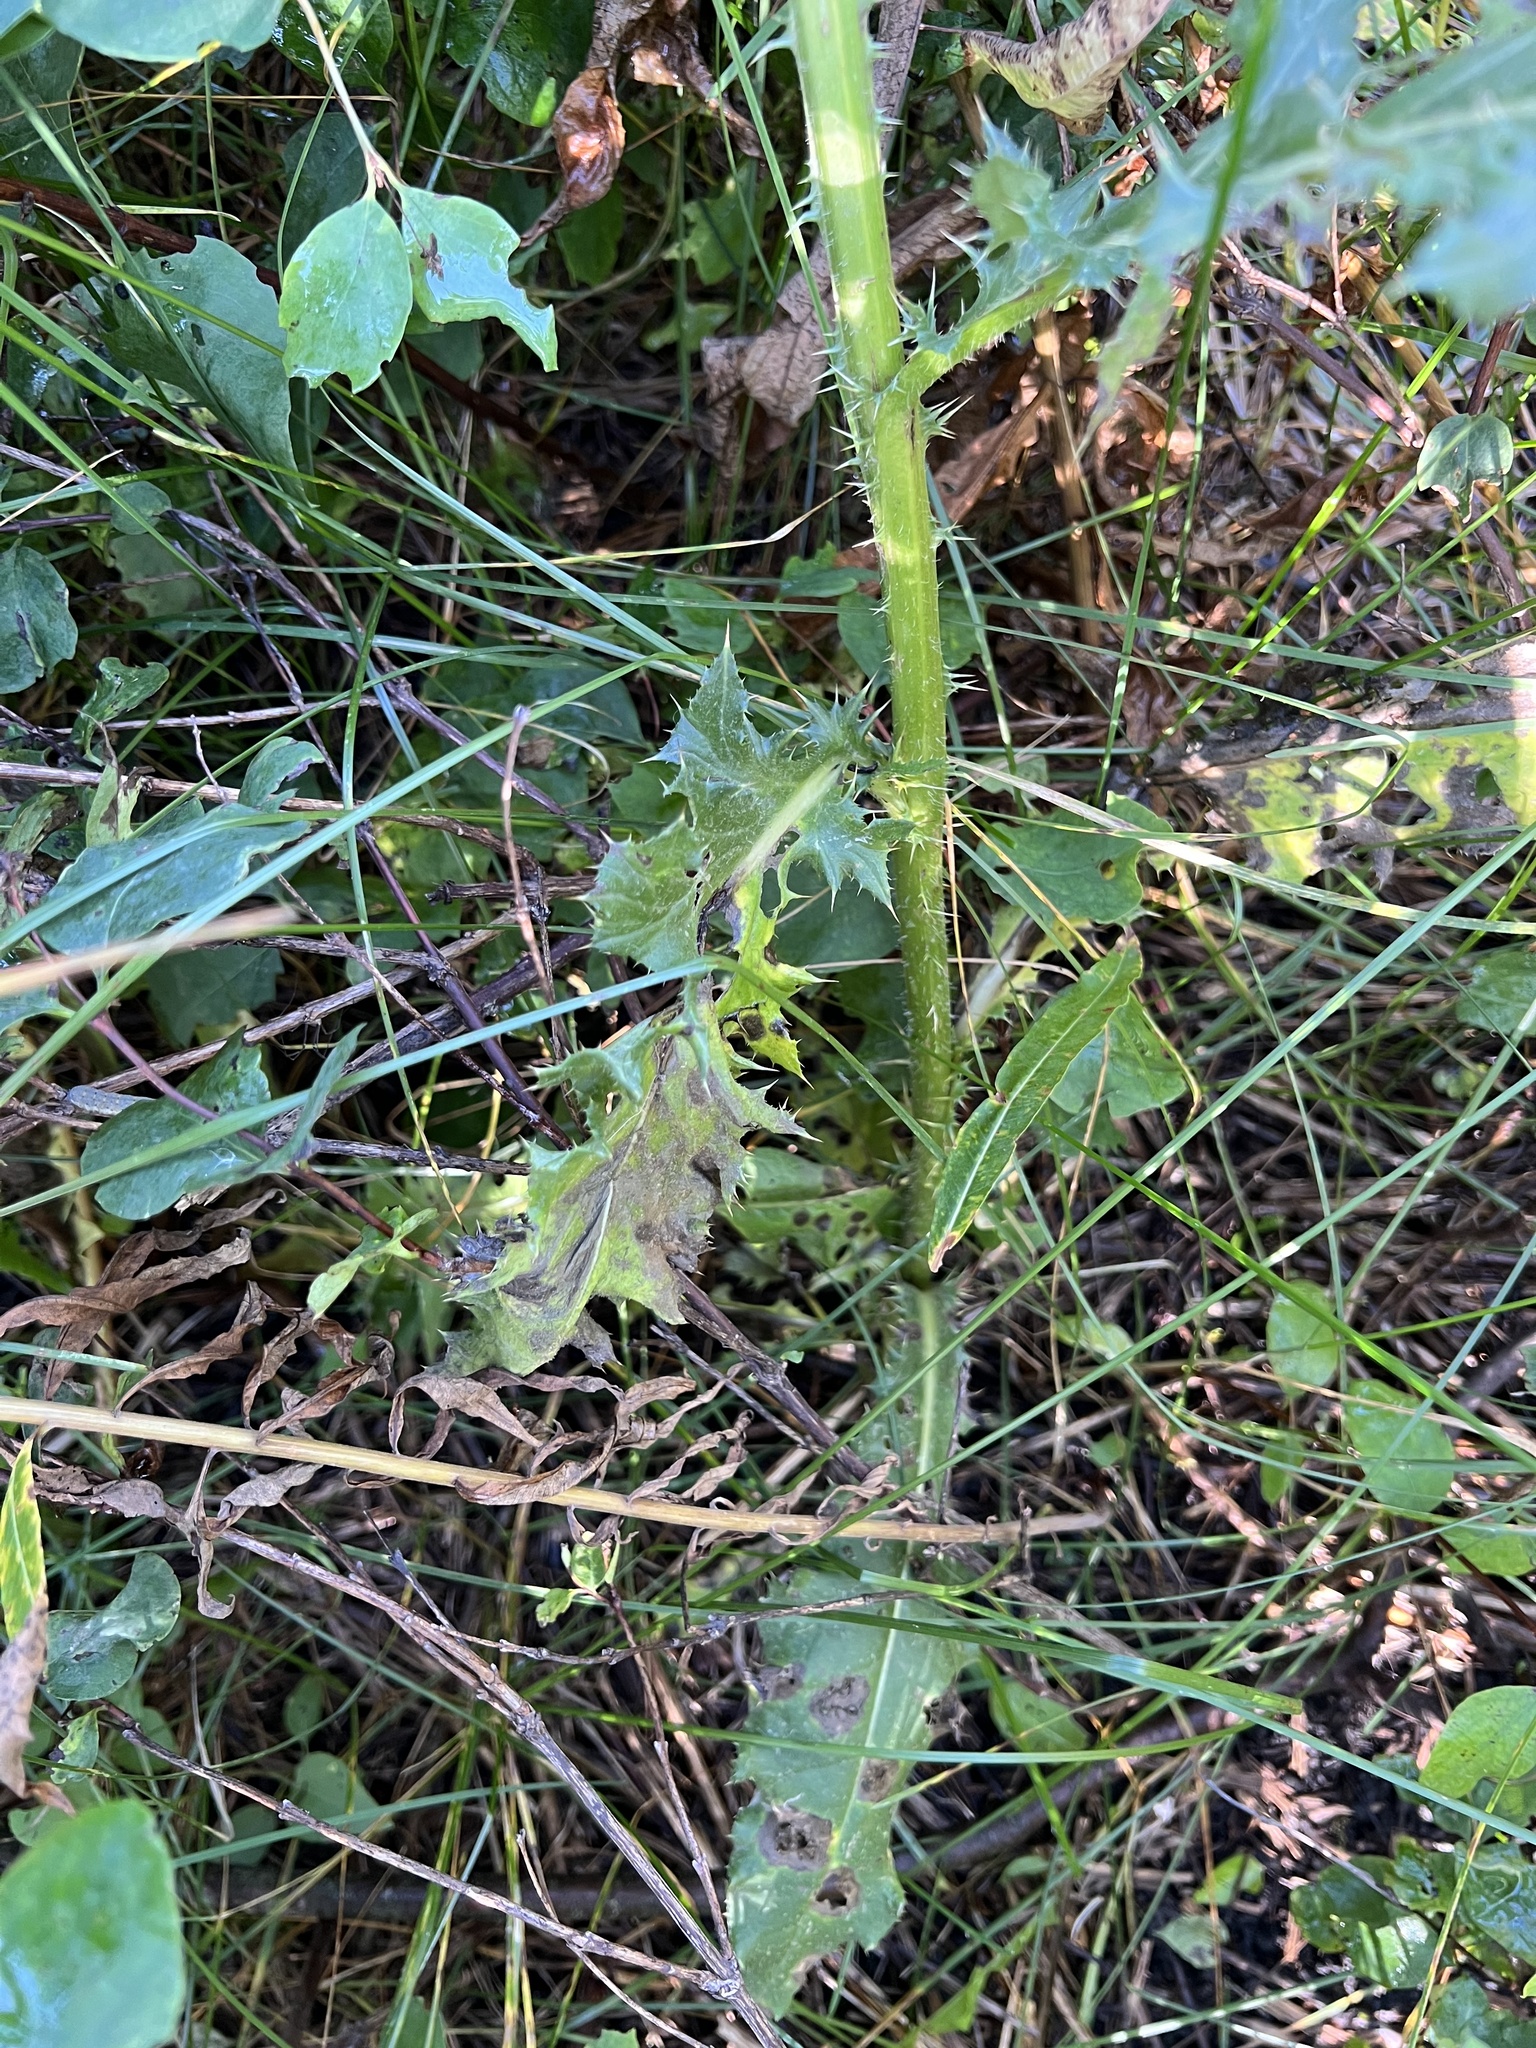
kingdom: Plantae
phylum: Tracheophyta
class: Magnoliopsida
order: Asterales
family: Asteraceae
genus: Cirsium
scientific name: Cirsium arvense
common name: Creeping thistle
